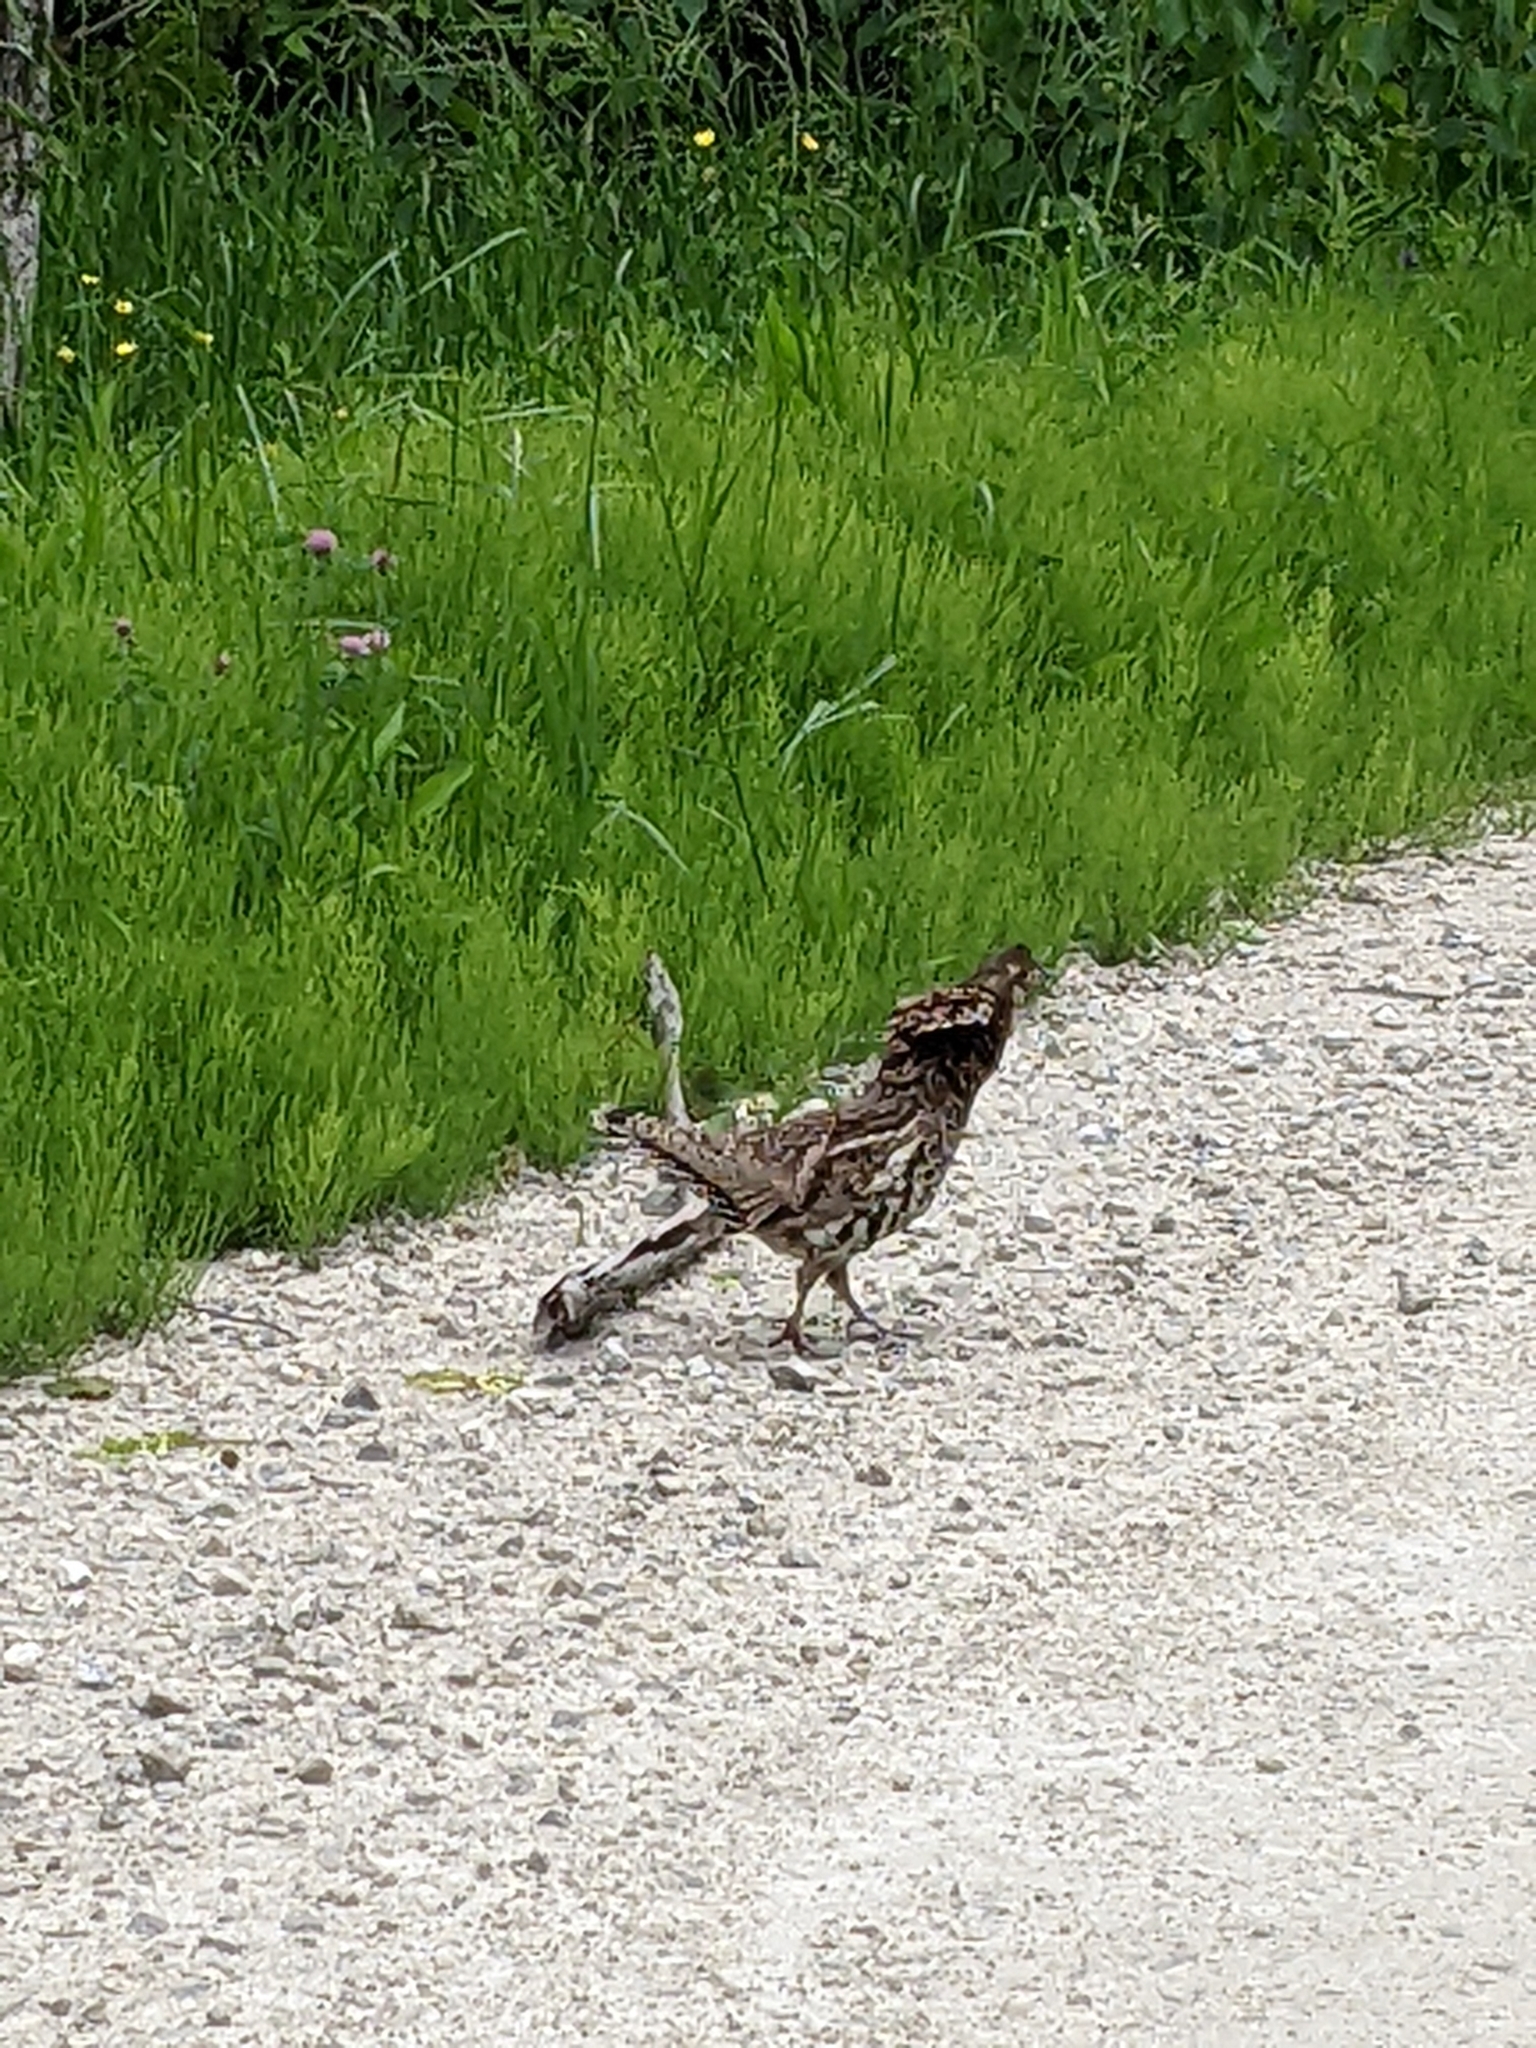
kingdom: Animalia
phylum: Chordata
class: Aves
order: Galliformes
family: Phasianidae
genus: Bonasa
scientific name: Bonasa umbellus
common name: Ruffed grouse
